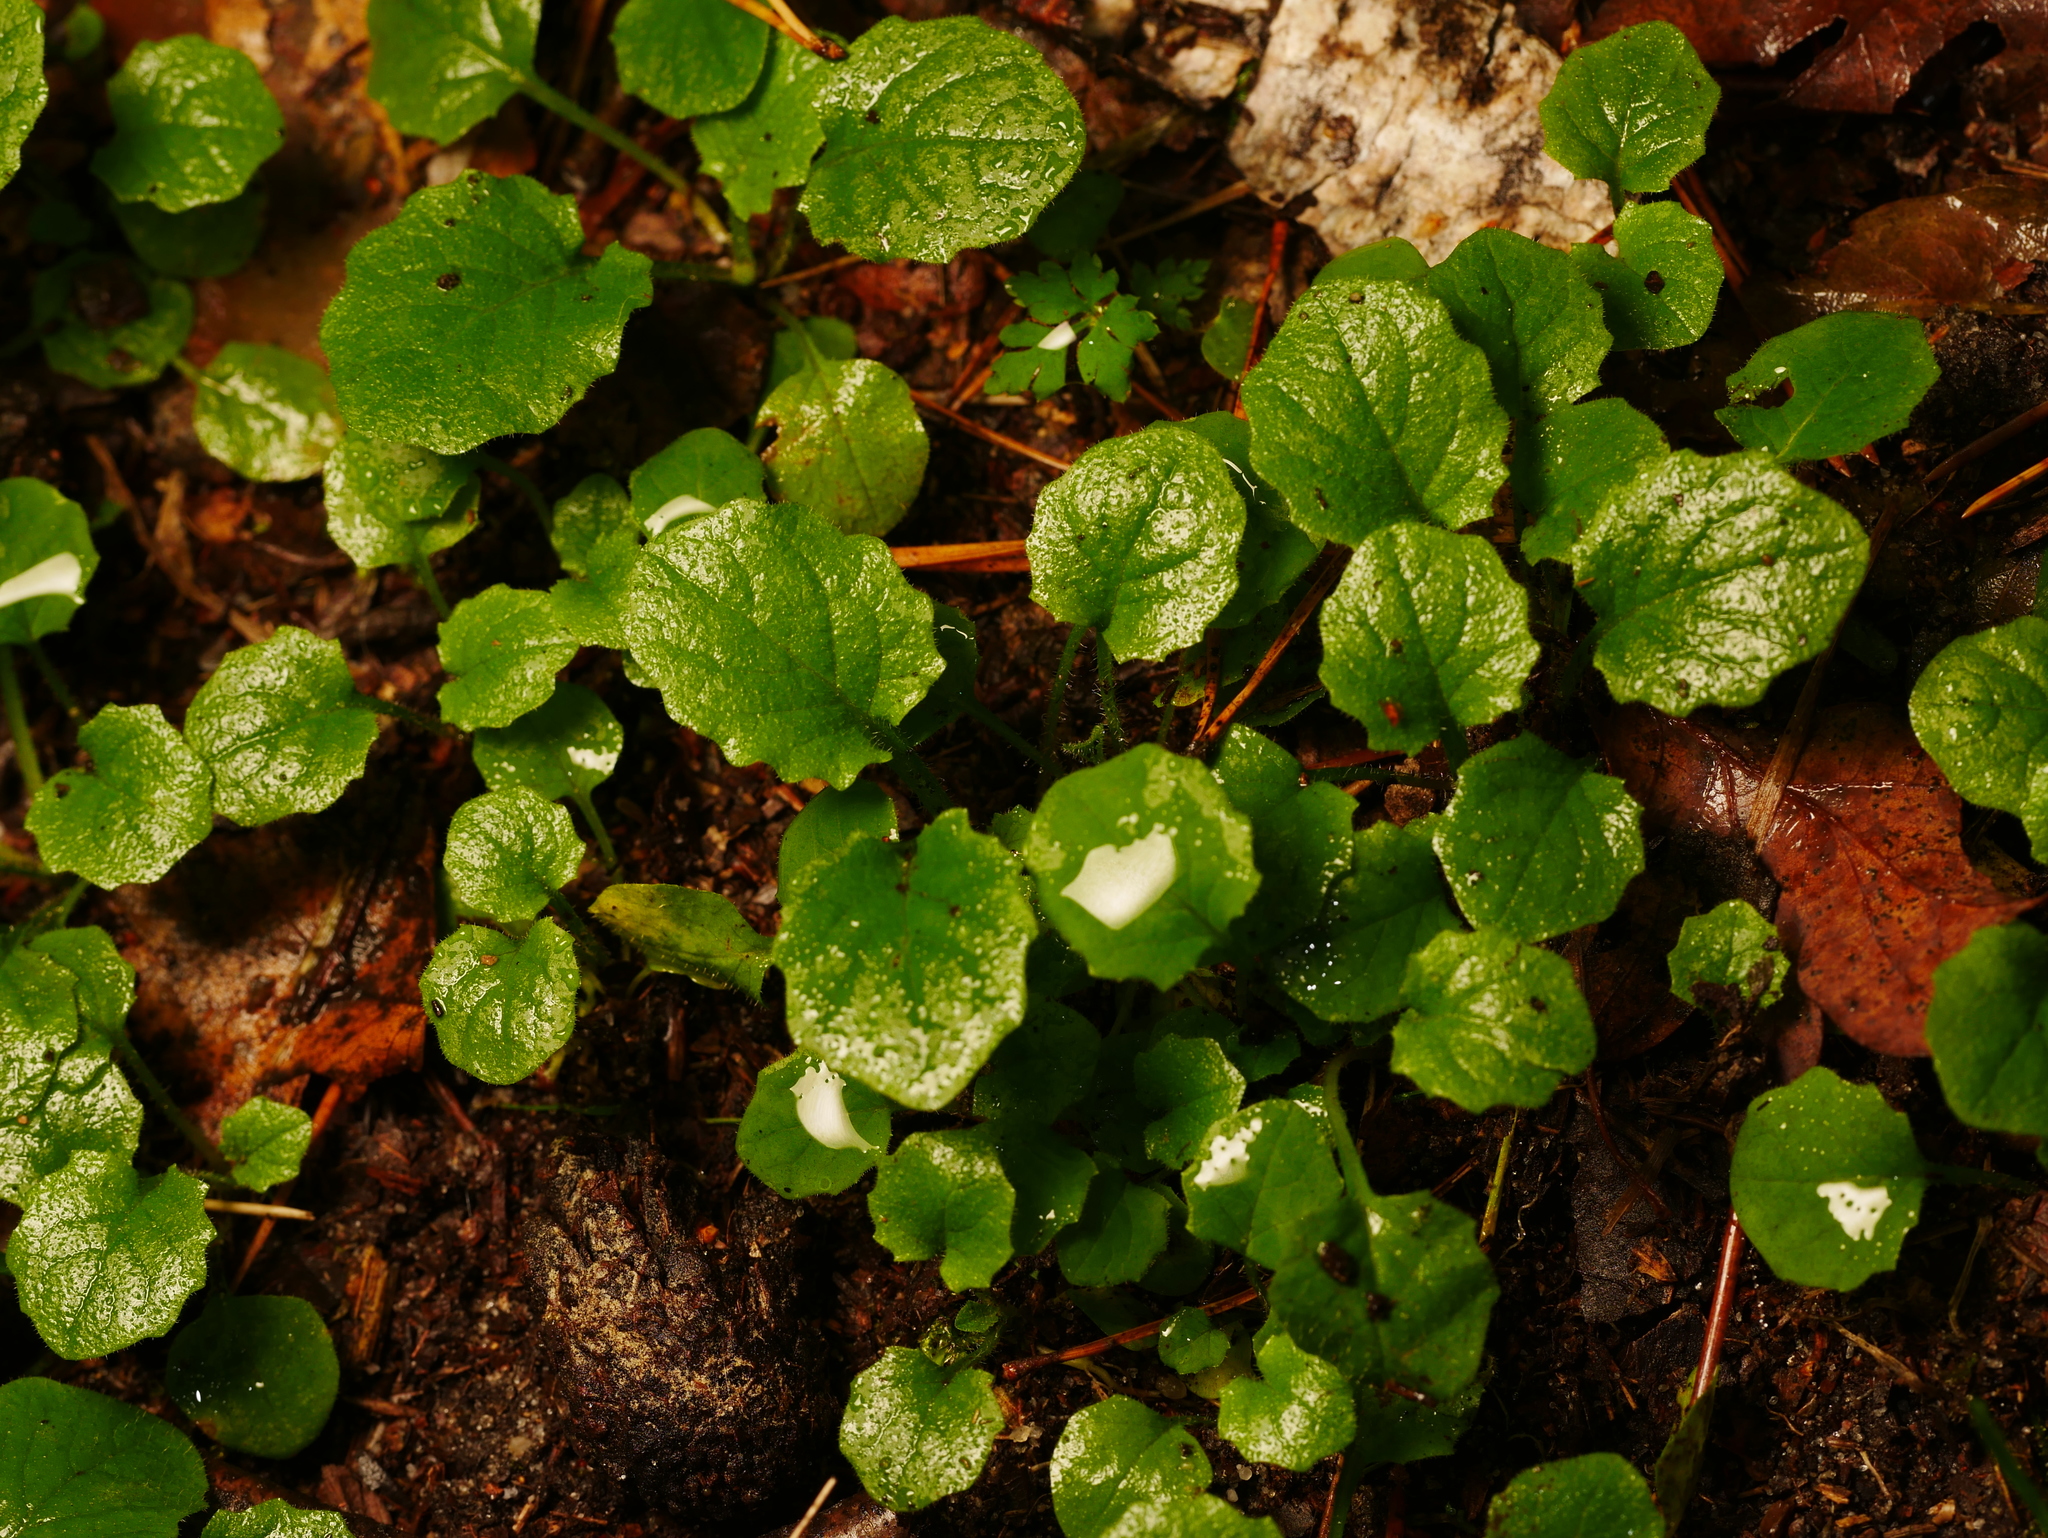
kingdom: Plantae
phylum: Tracheophyta
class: Magnoliopsida
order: Asterales
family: Asteraceae
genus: Lapsana
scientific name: Lapsana communis
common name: Nipplewort
